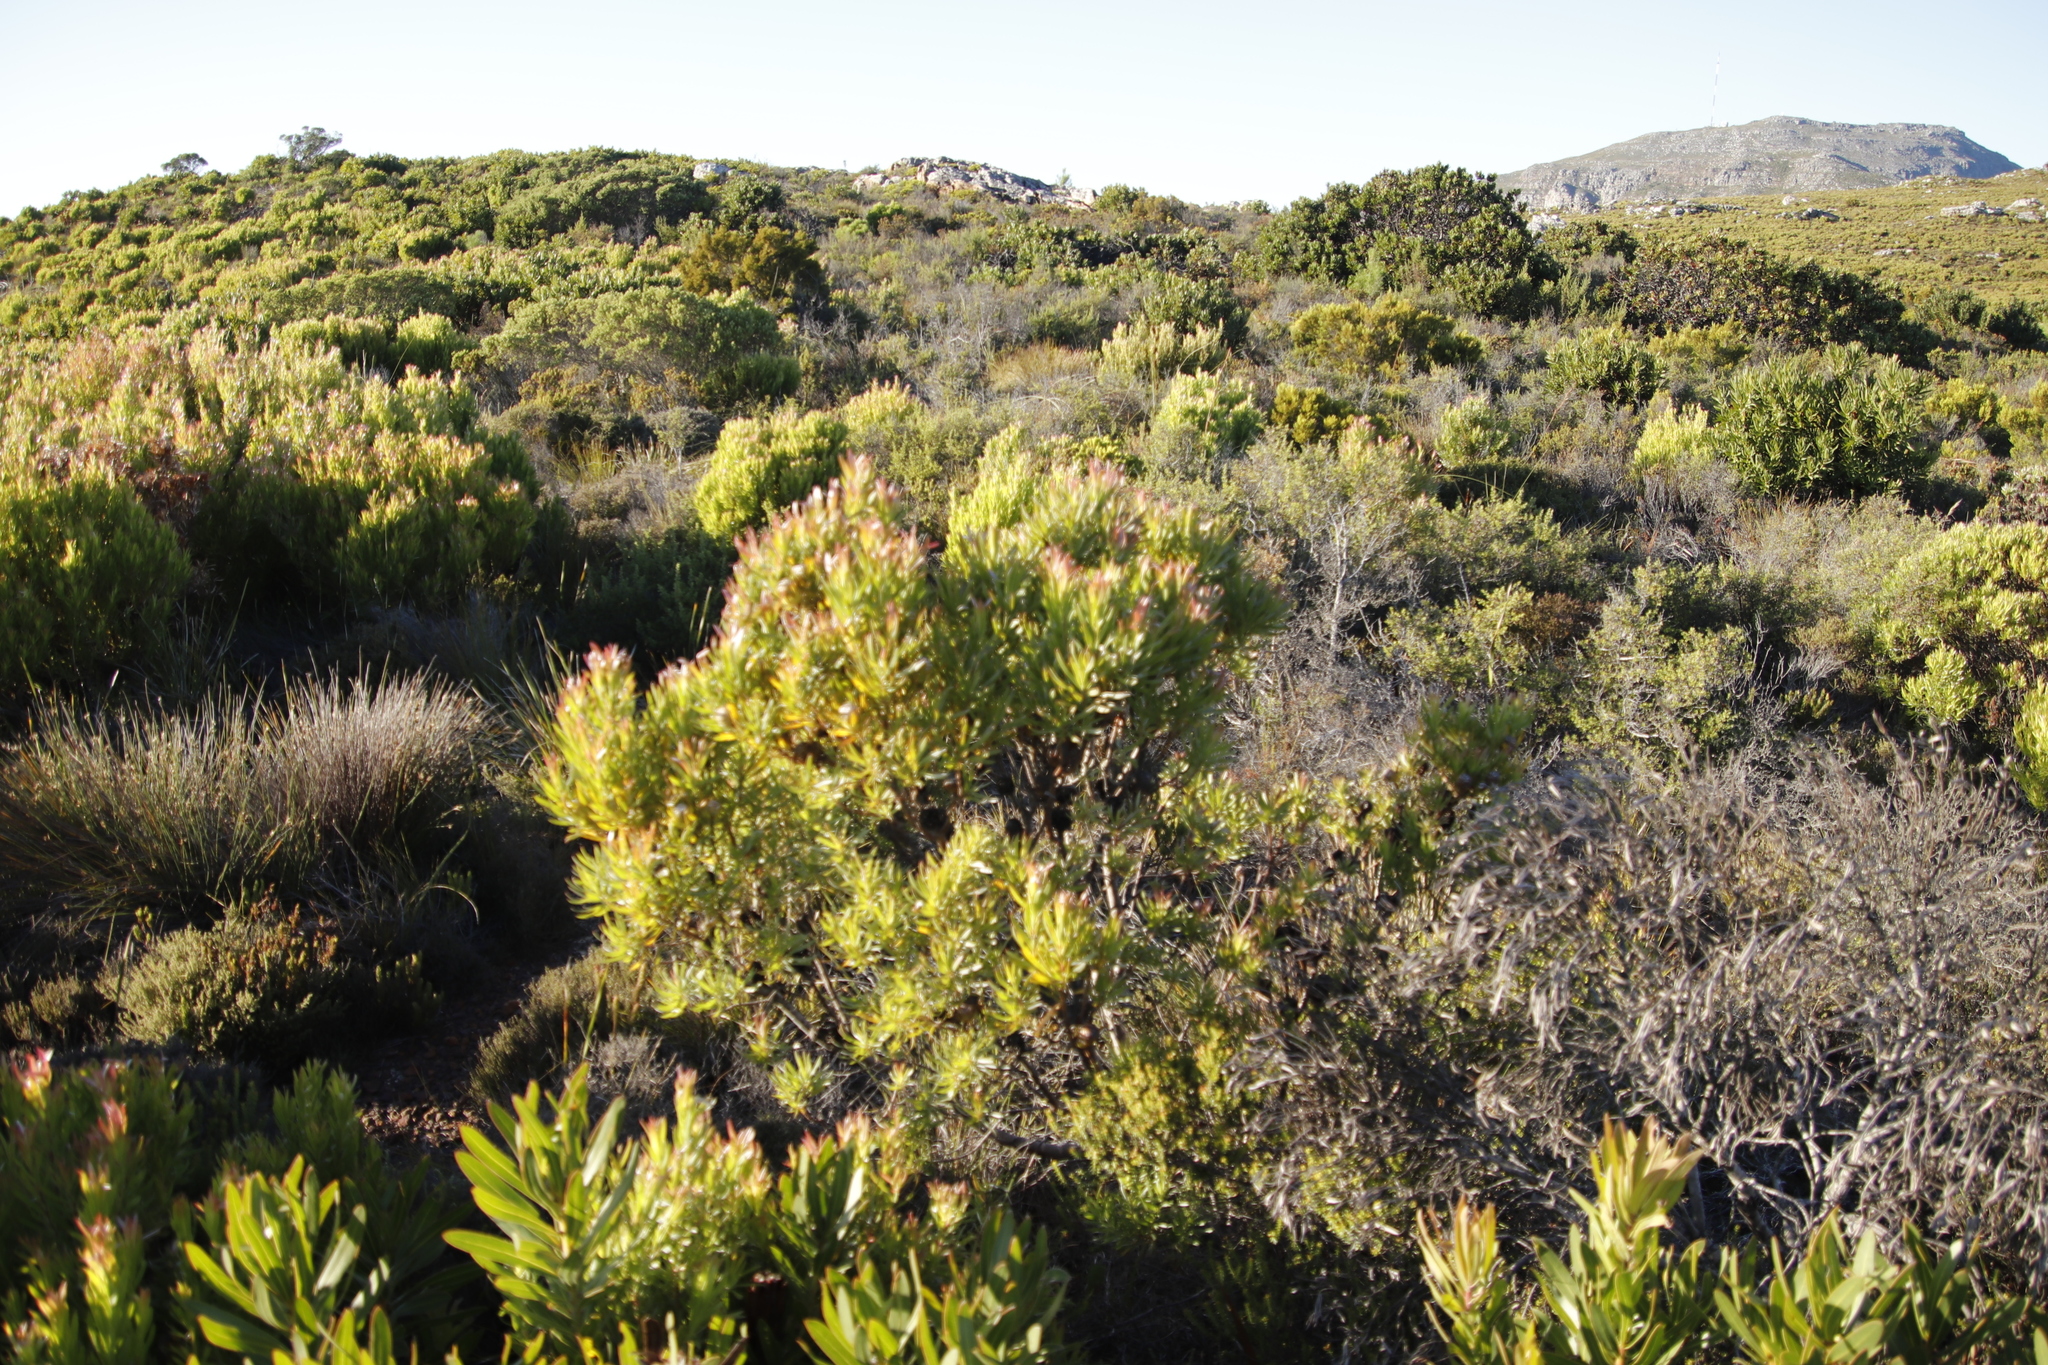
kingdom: Plantae
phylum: Tracheophyta
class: Magnoliopsida
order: Proteales
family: Proteaceae
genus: Leucadendron
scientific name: Leucadendron xanthoconus
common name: Sickle-leaf conebush
